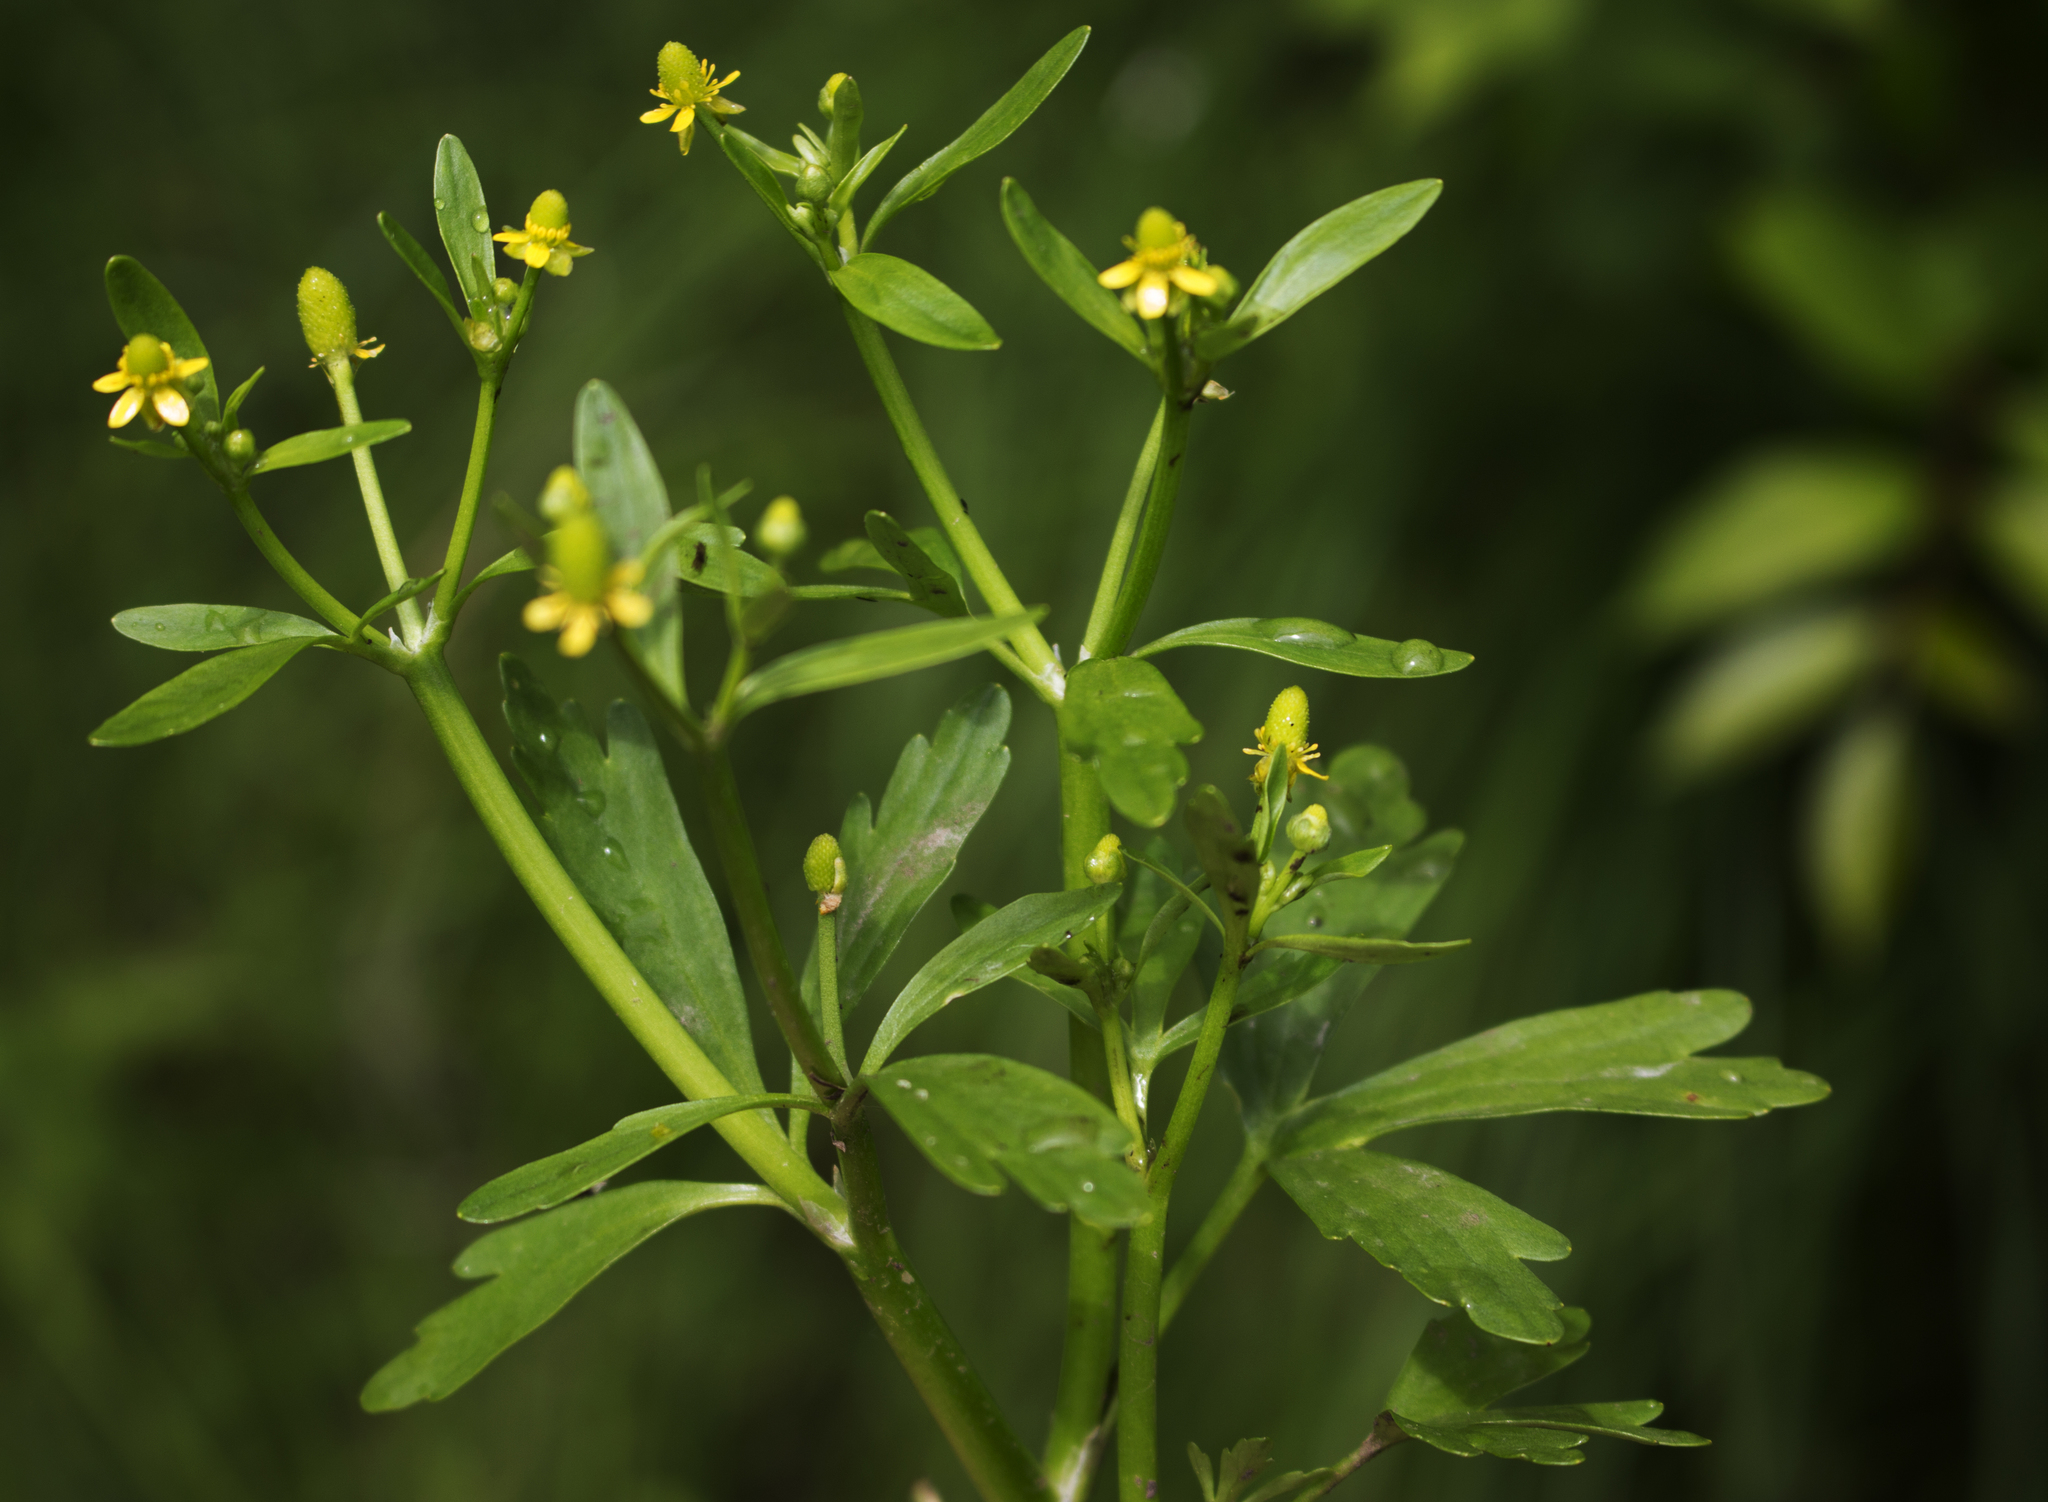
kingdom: Plantae
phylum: Tracheophyta
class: Magnoliopsida
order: Ranunculales
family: Ranunculaceae
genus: Ranunculus
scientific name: Ranunculus sceleratus
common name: Celery-leaved buttercup
